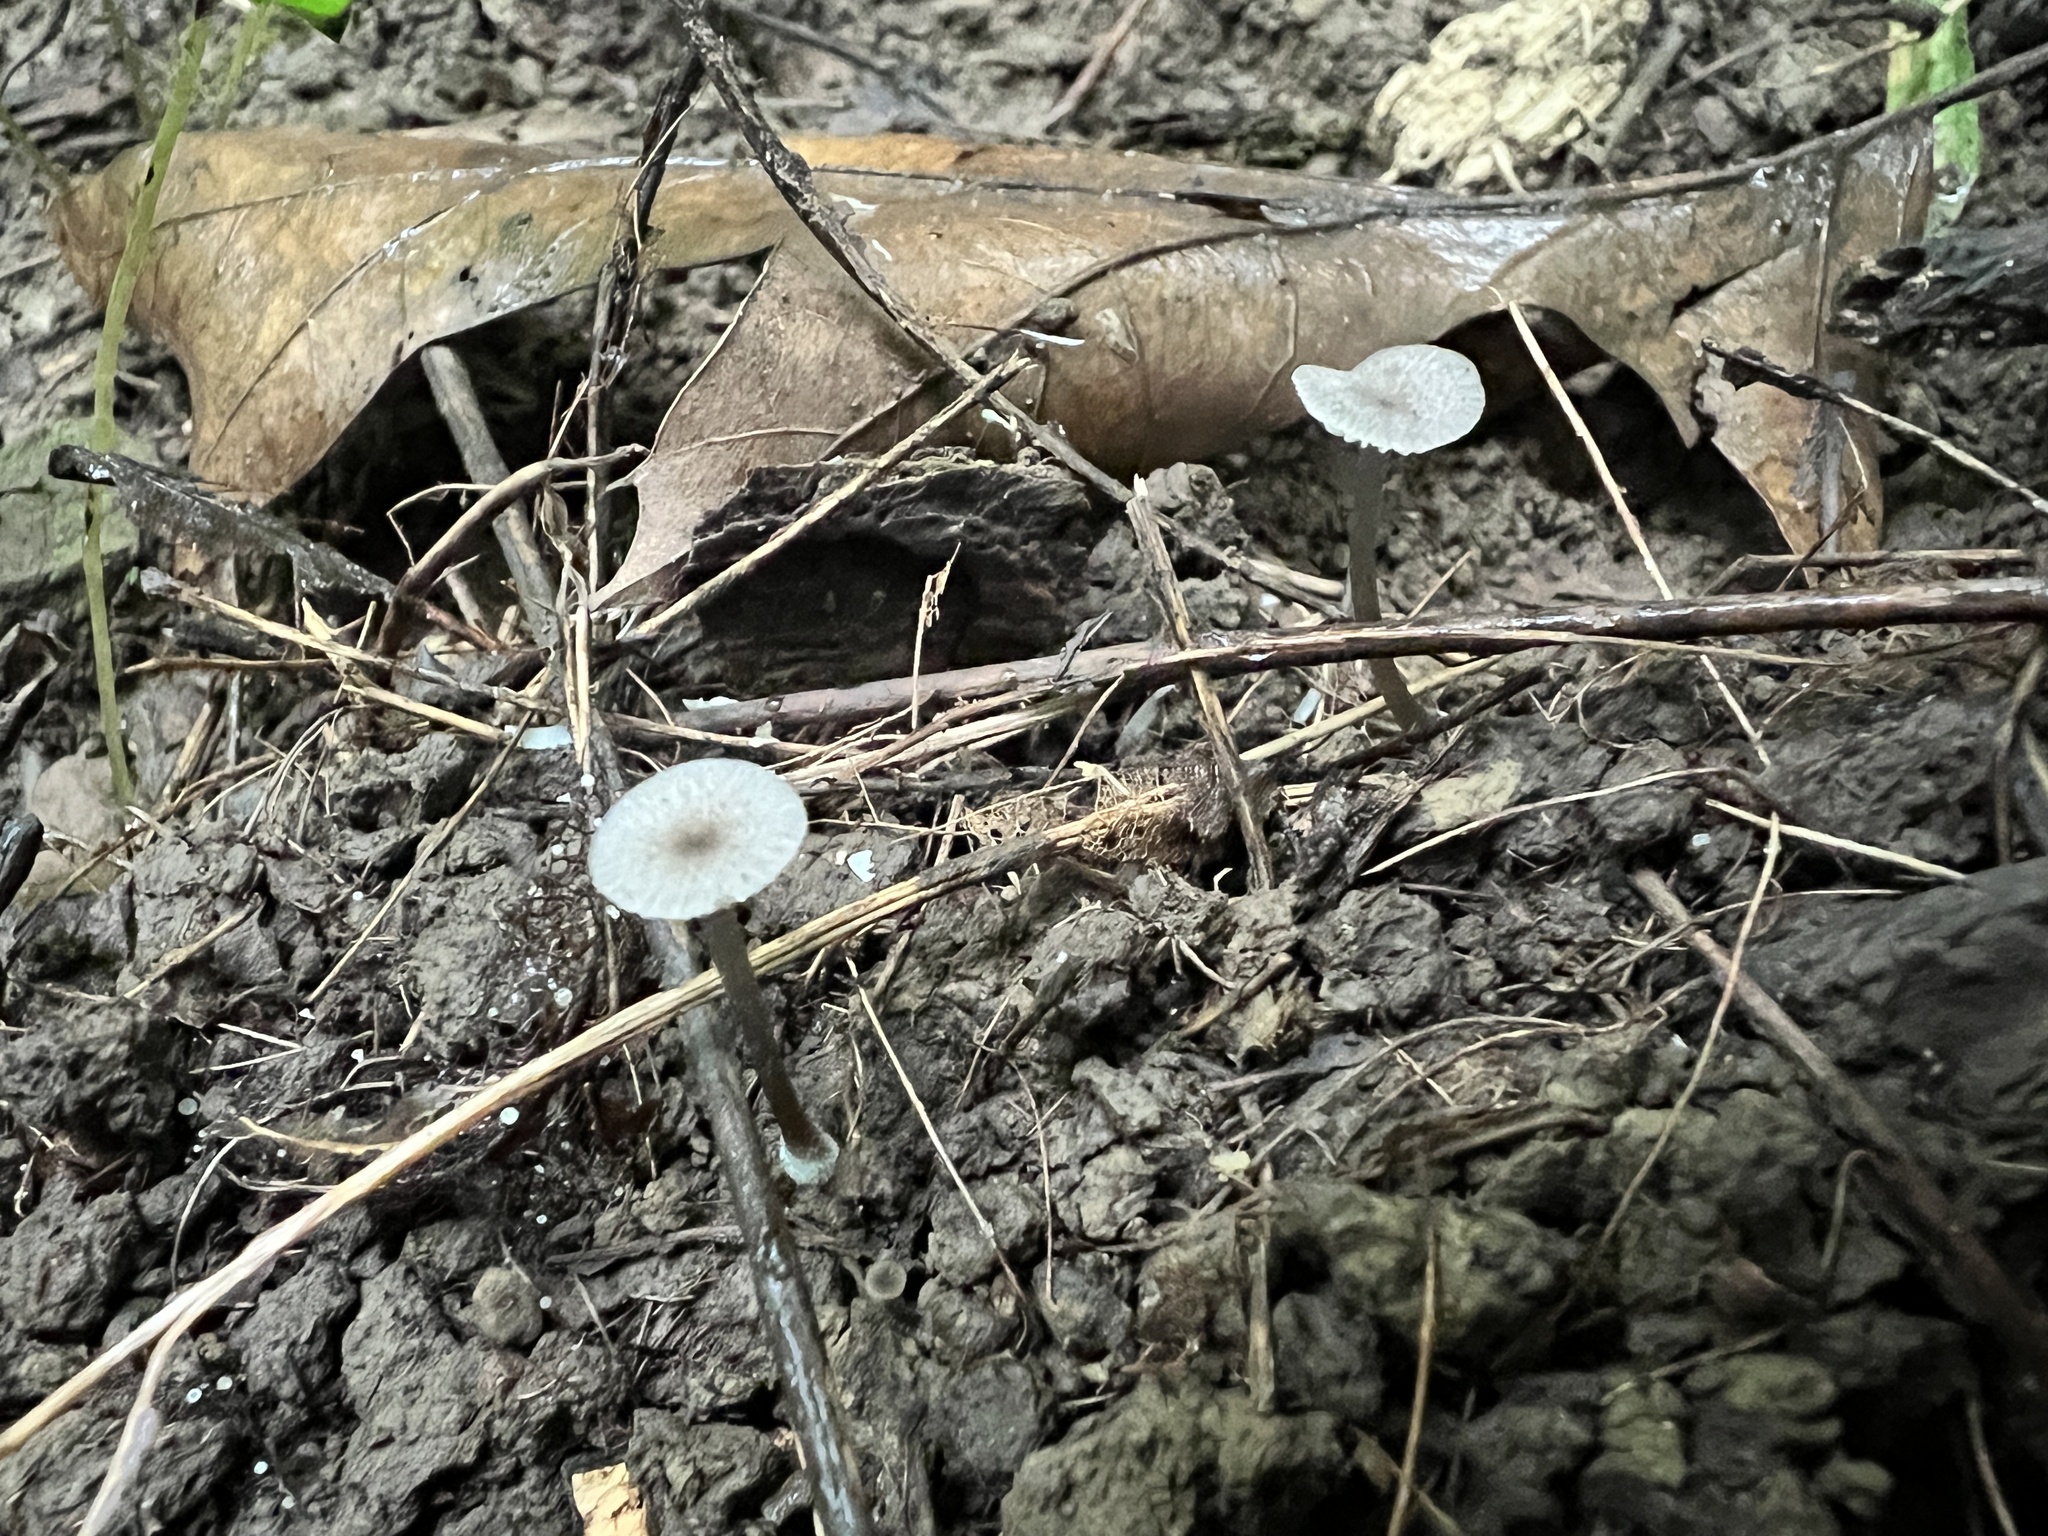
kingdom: Fungi
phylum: Basidiomycota
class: Agaricomycetes
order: Agaricales
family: Entolomataceae
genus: Entoloma
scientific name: Entoloma perumbilicatum
